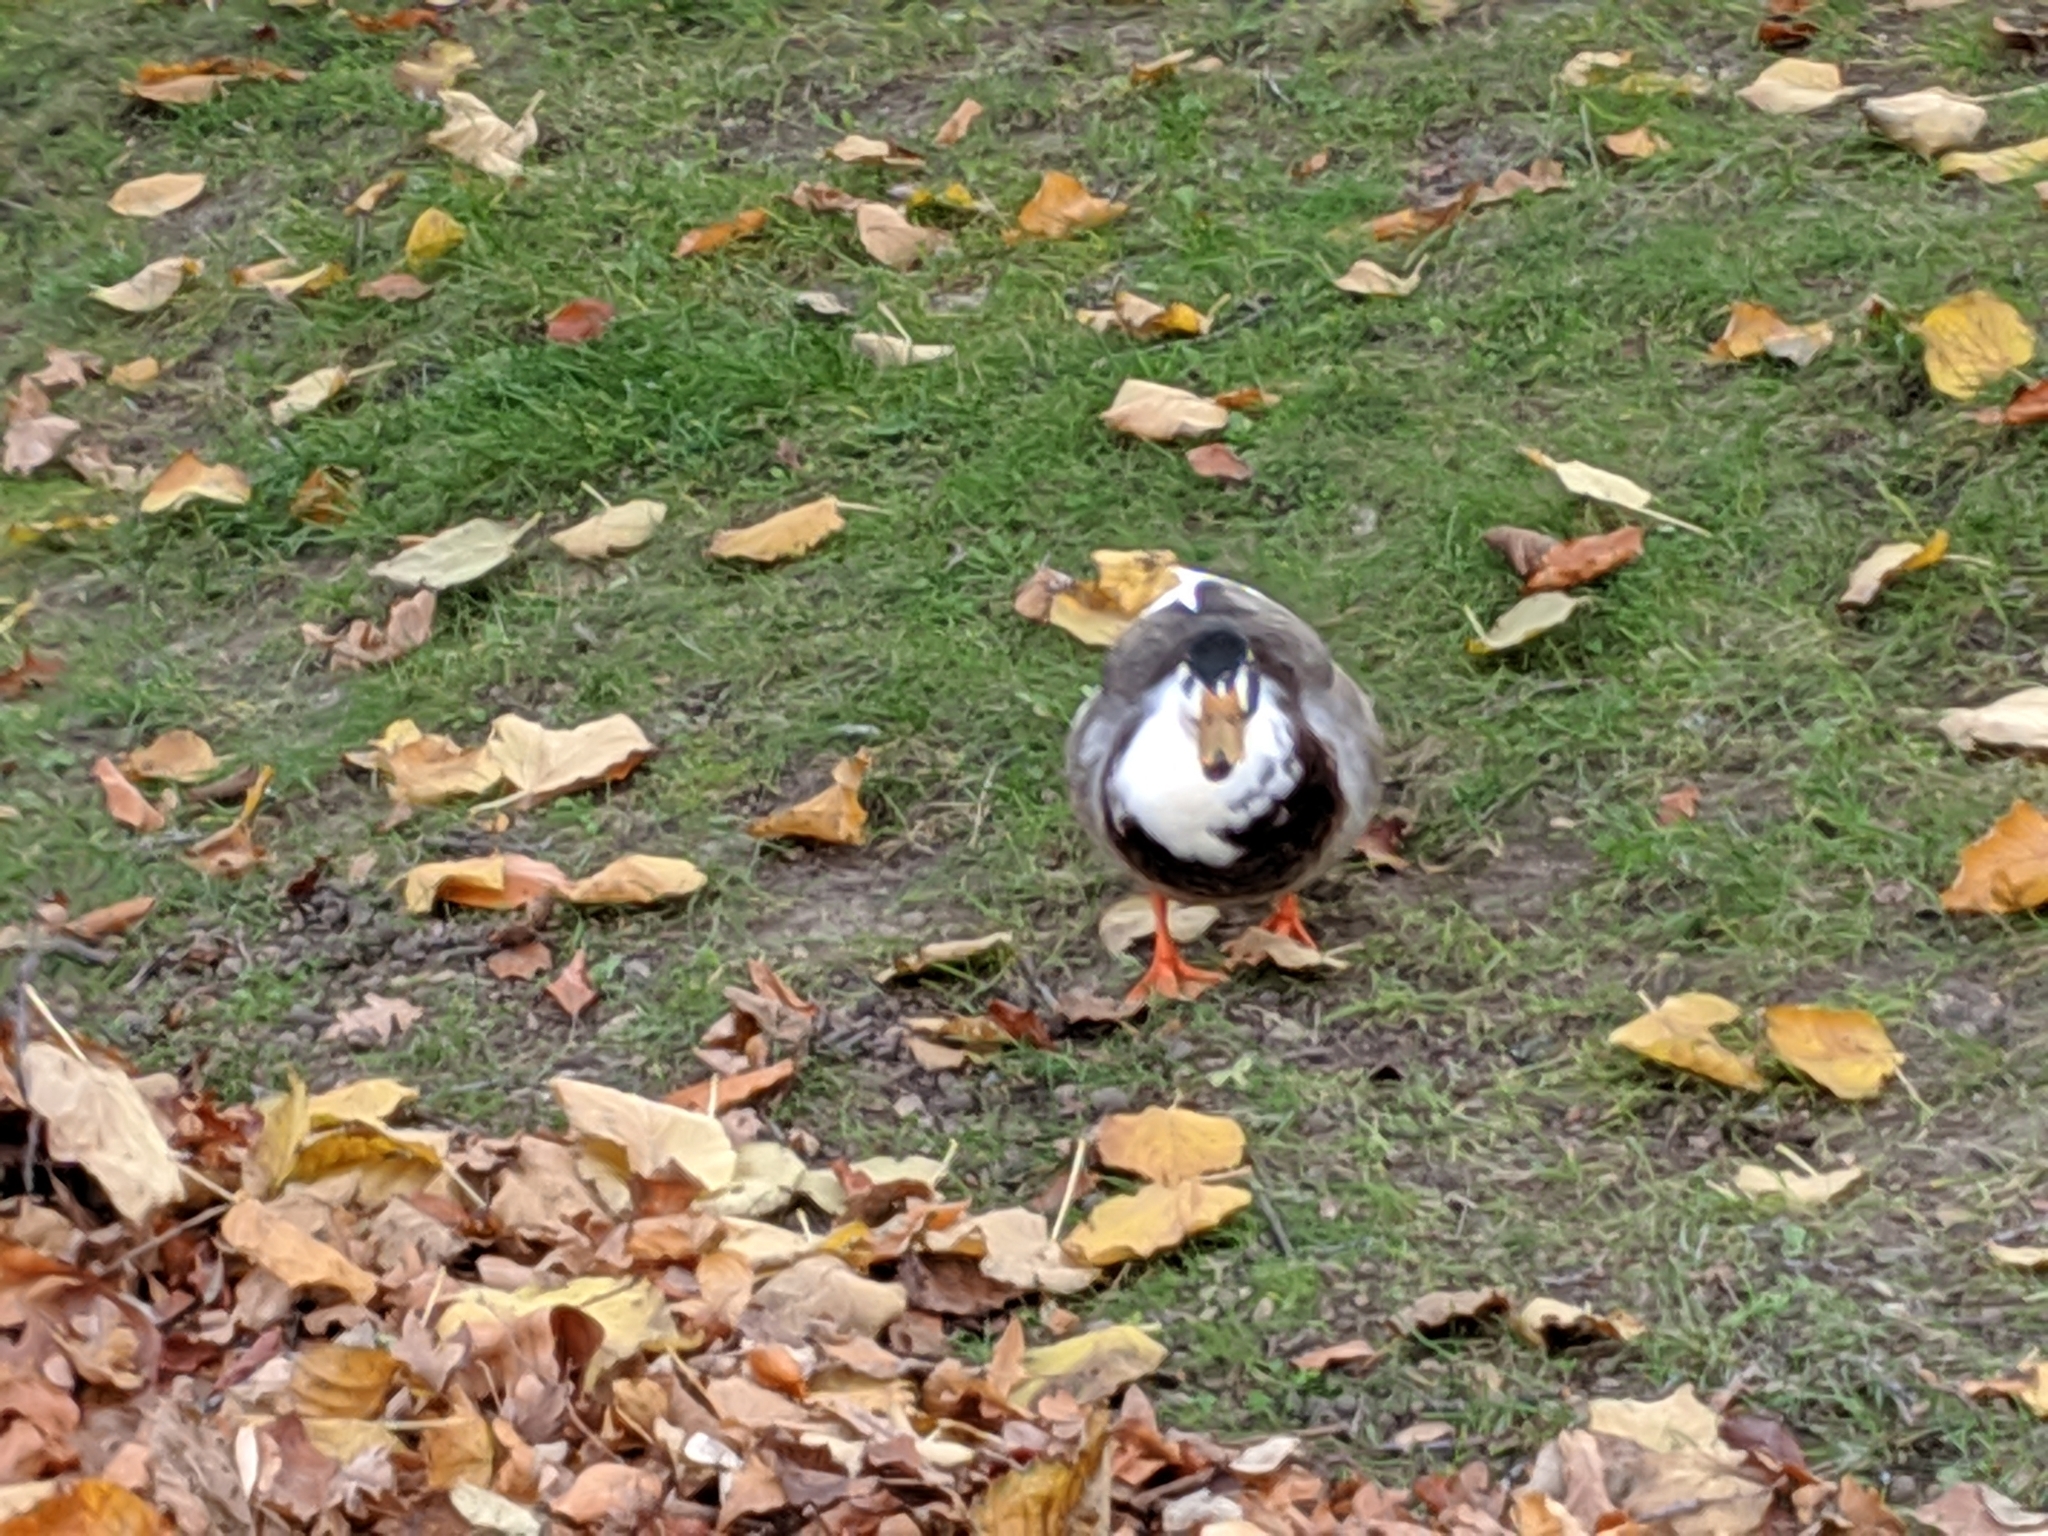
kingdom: Animalia
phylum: Chordata
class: Aves
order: Anseriformes
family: Anatidae
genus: Anas
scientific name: Anas platyrhynchos
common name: Mallard
